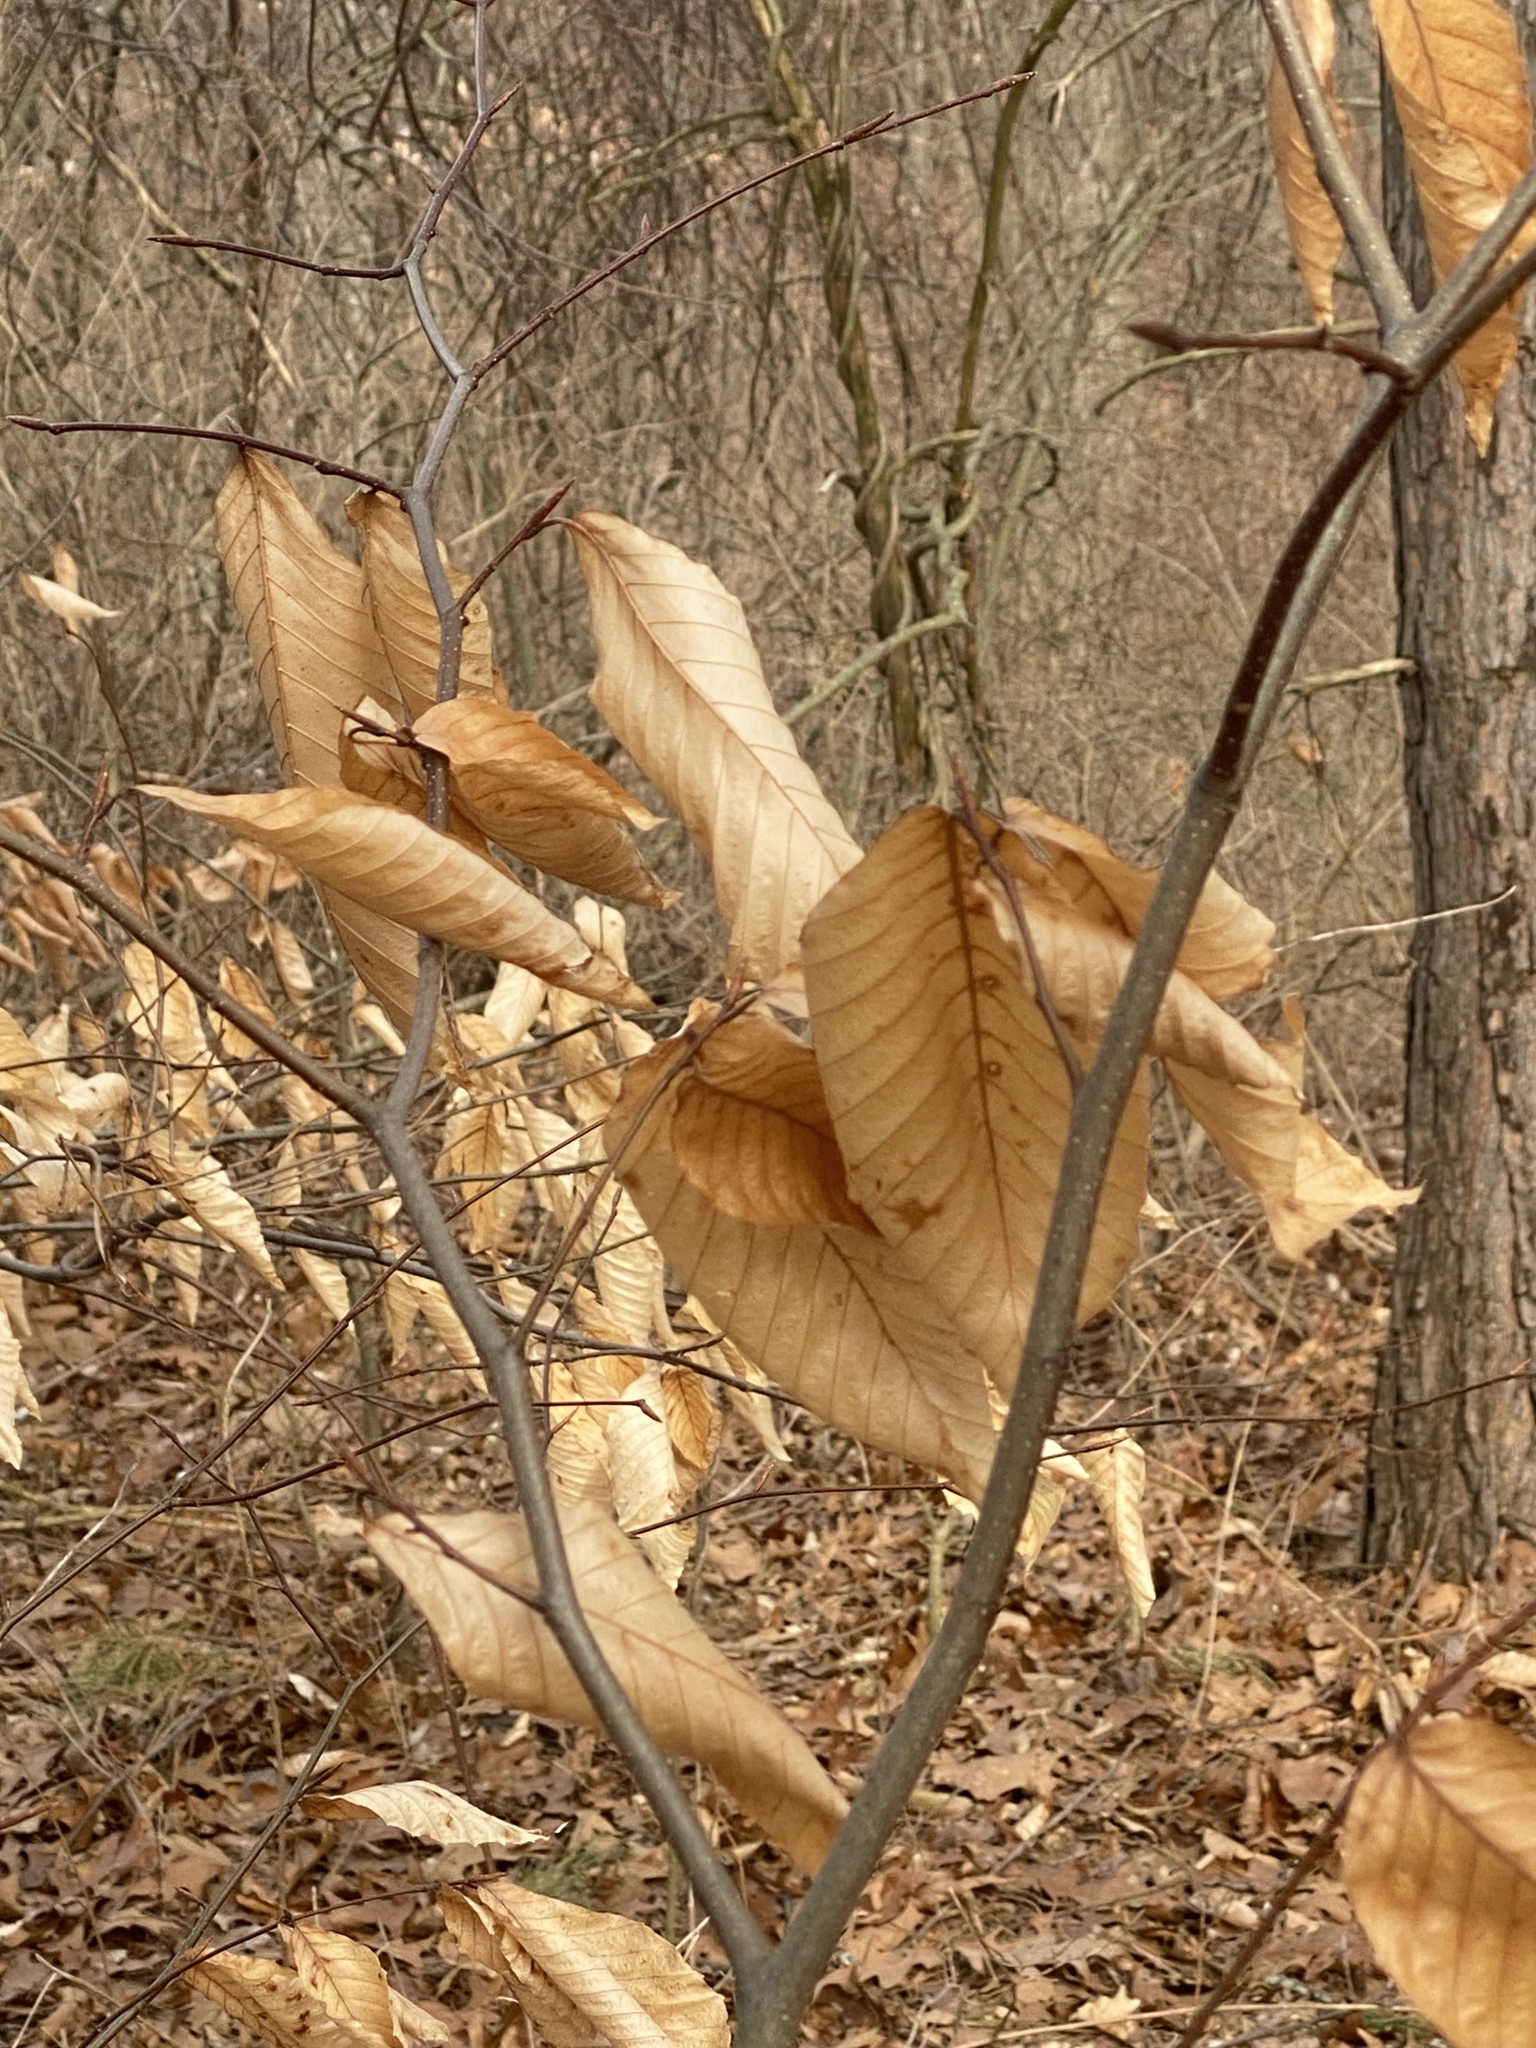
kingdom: Plantae
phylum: Tracheophyta
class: Magnoliopsida
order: Fagales
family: Fagaceae
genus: Fagus
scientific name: Fagus grandifolia
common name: American beech
